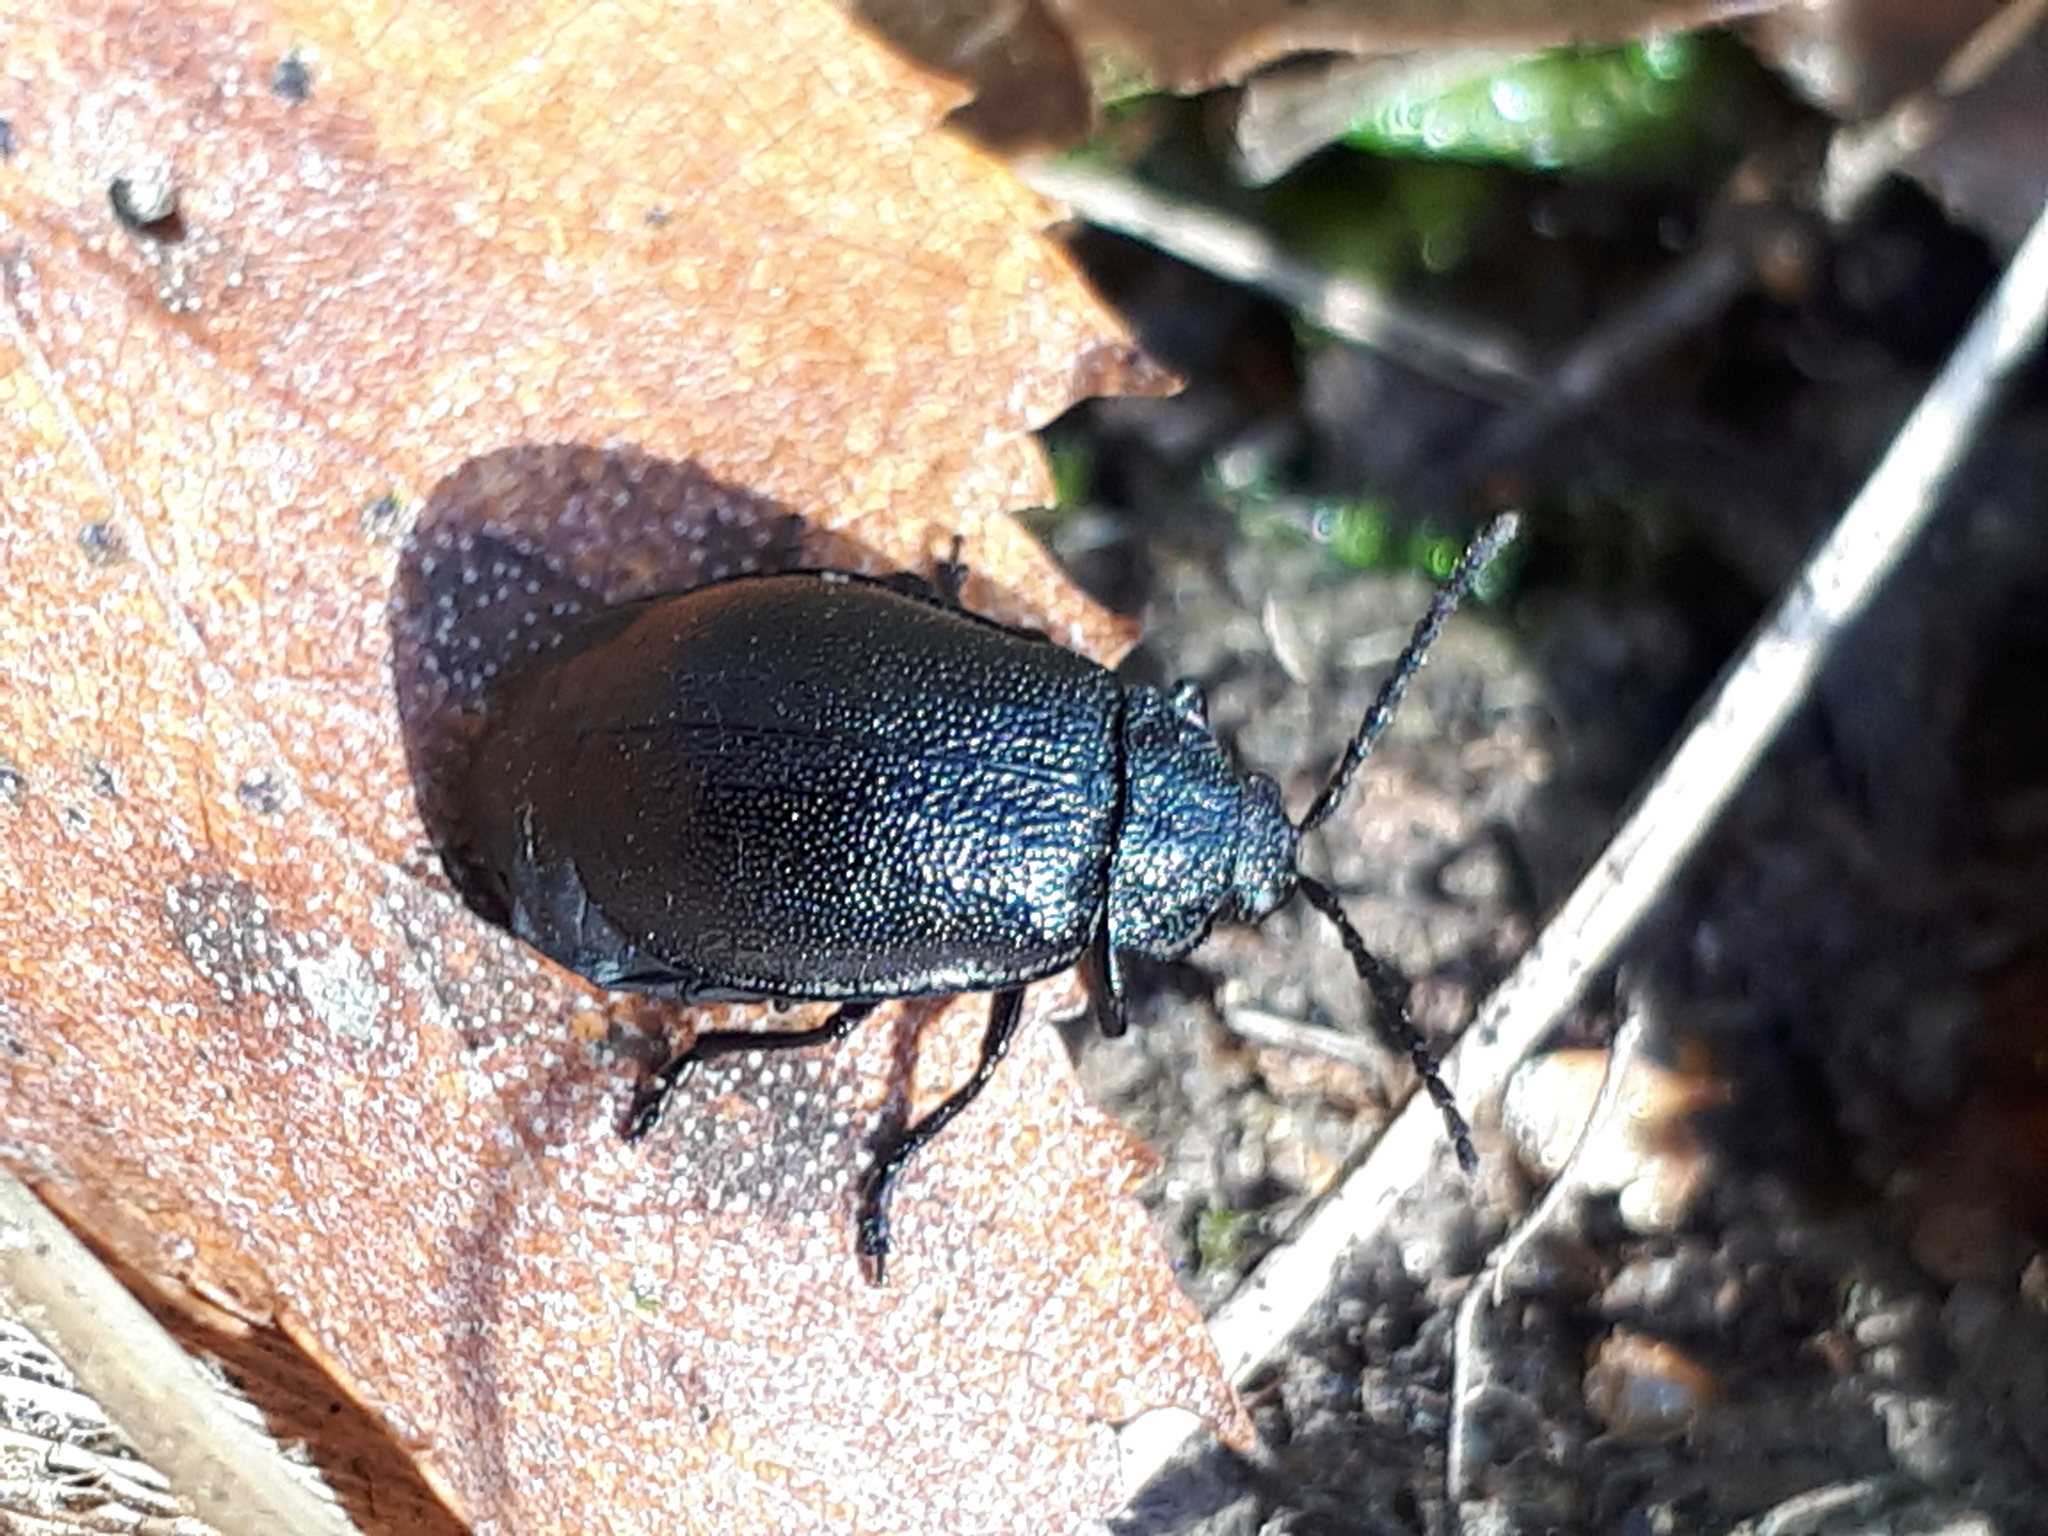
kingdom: Animalia
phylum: Arthropoda
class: Insecta
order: Coleoptera
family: Chrysomelidae
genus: Galeruca
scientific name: Galeruca tanaceti
